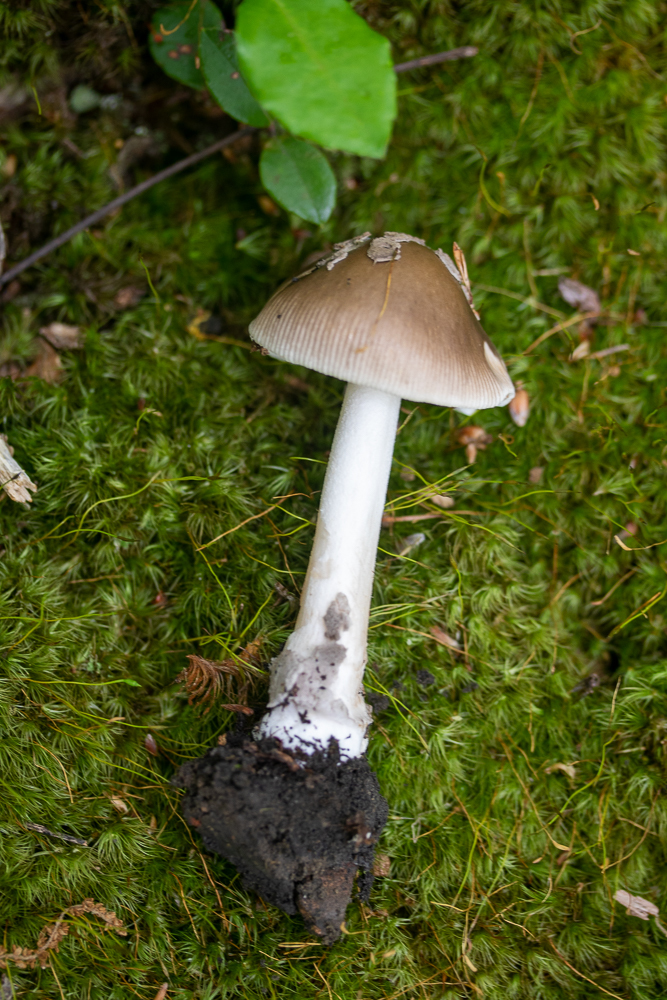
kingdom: Fungi
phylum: Basidiomycota
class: Agaricomycetes
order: Agaricales
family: Amanitaceae
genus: Amanita
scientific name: Amanita rhacopus
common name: Shaggy legged ringless amanita
